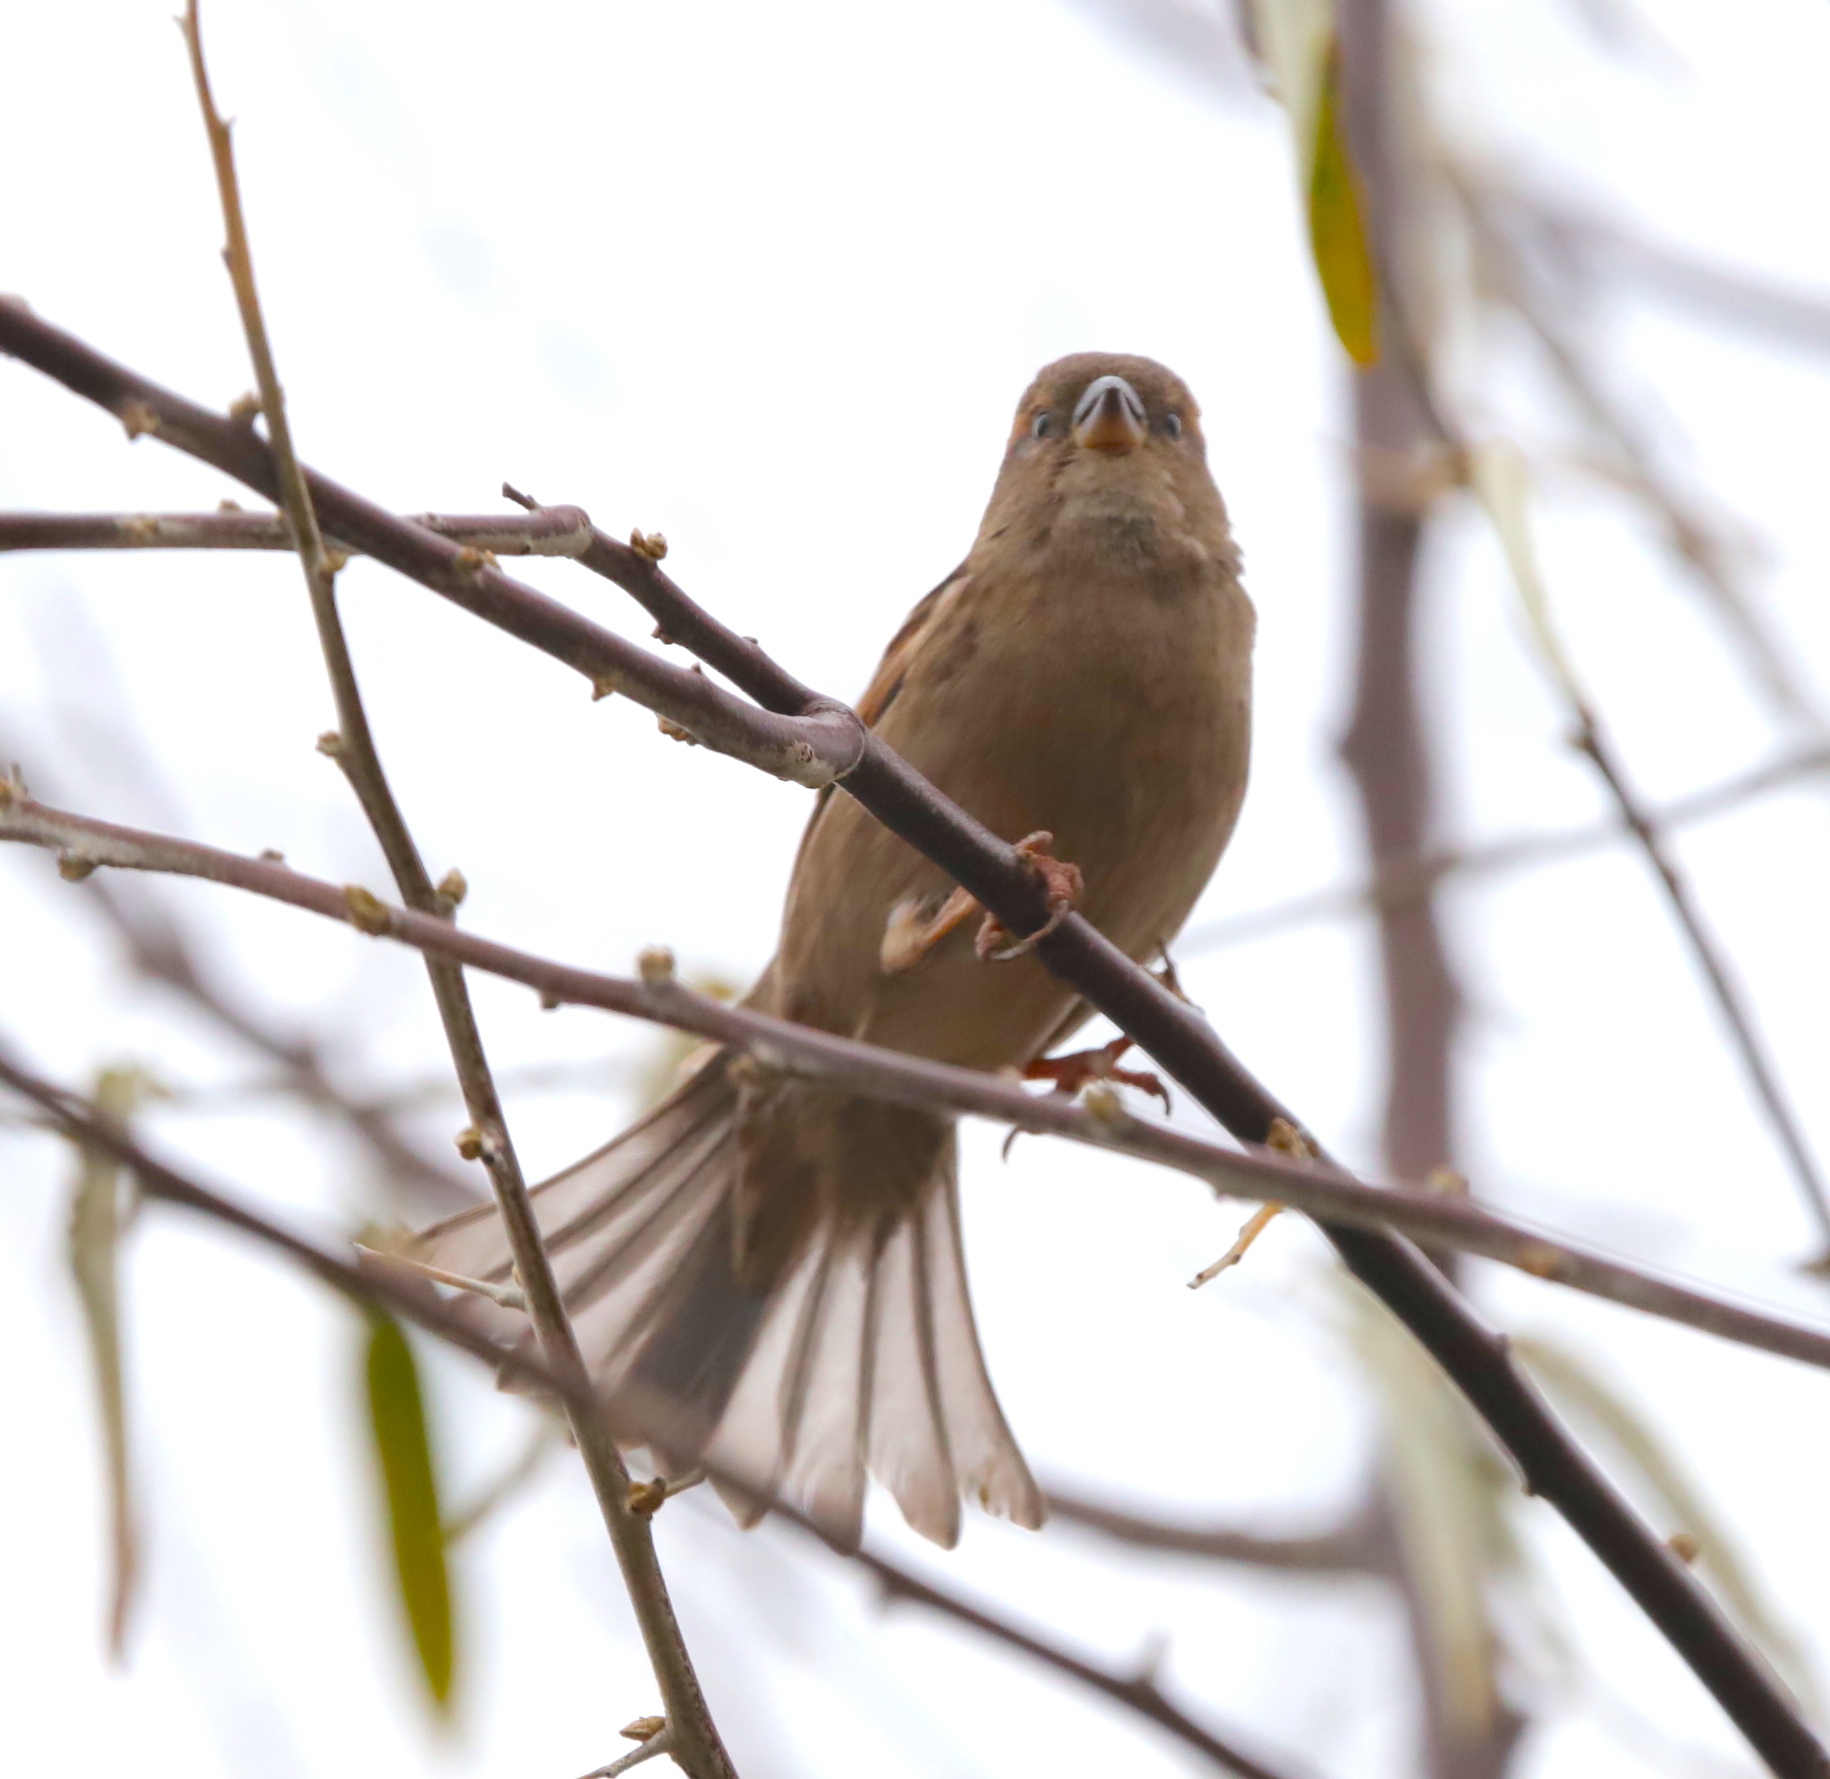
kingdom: Animalia
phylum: Chordata
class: Aves
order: Passeriformes
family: Passeridae
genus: Passer
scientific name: Passer domesticus
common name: House sparrow
